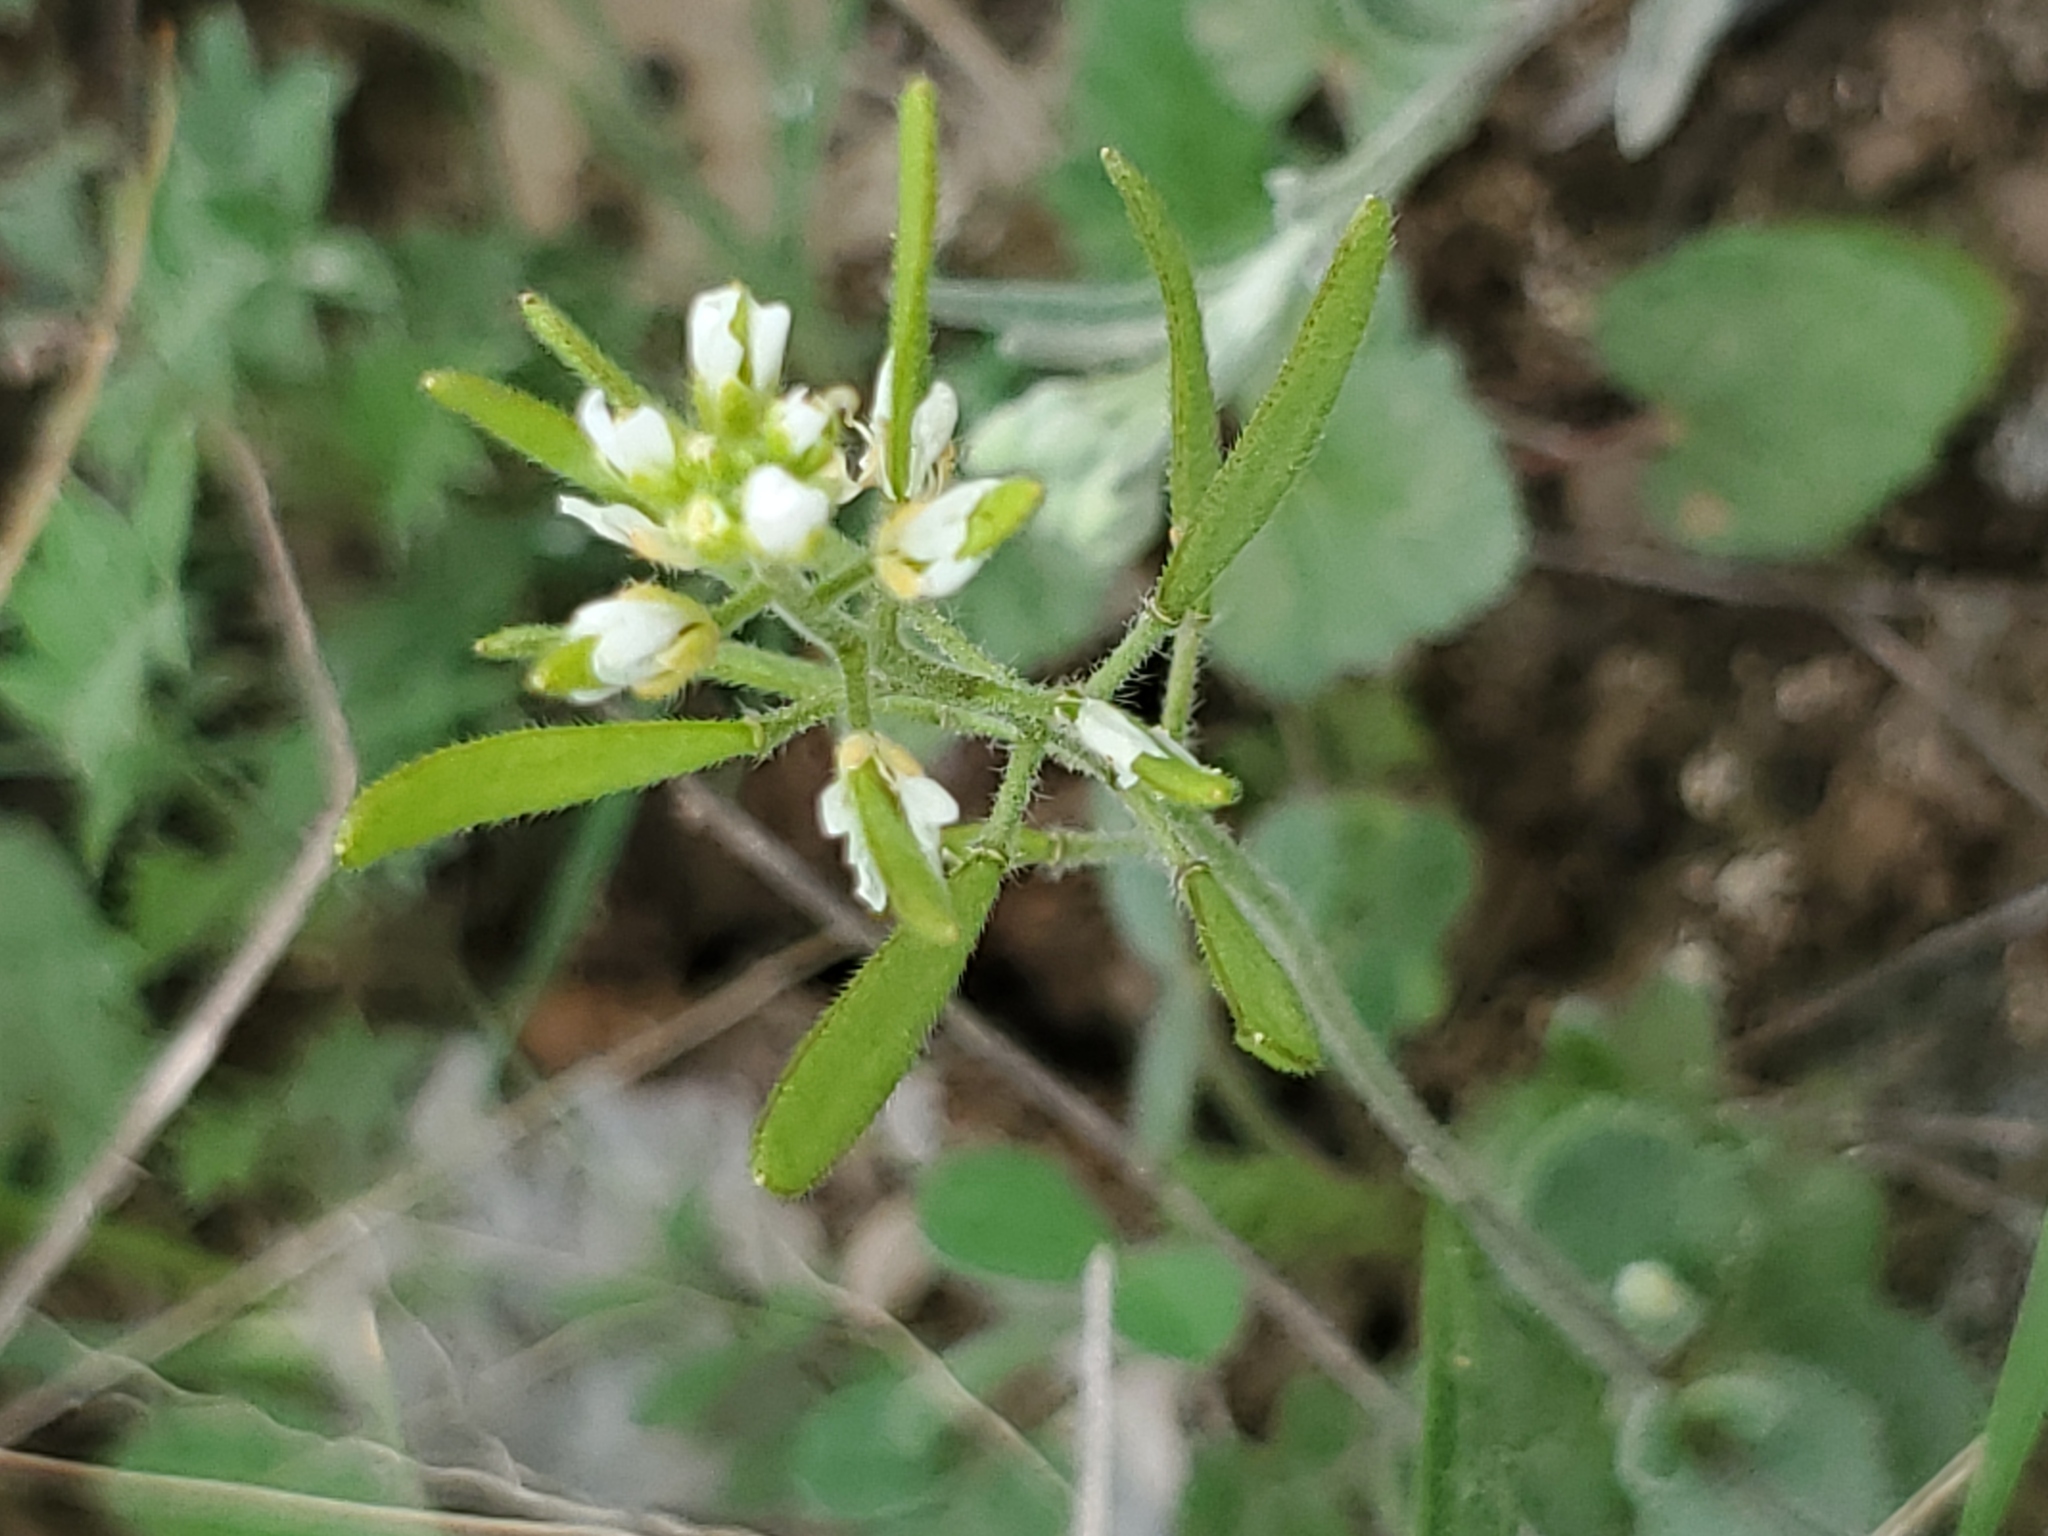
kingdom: Plantae
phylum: Tracheophyta
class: Magnoliopsida
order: Brassicales
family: Brassicaceae
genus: Tomostima
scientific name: Tomostima cuneifolia
